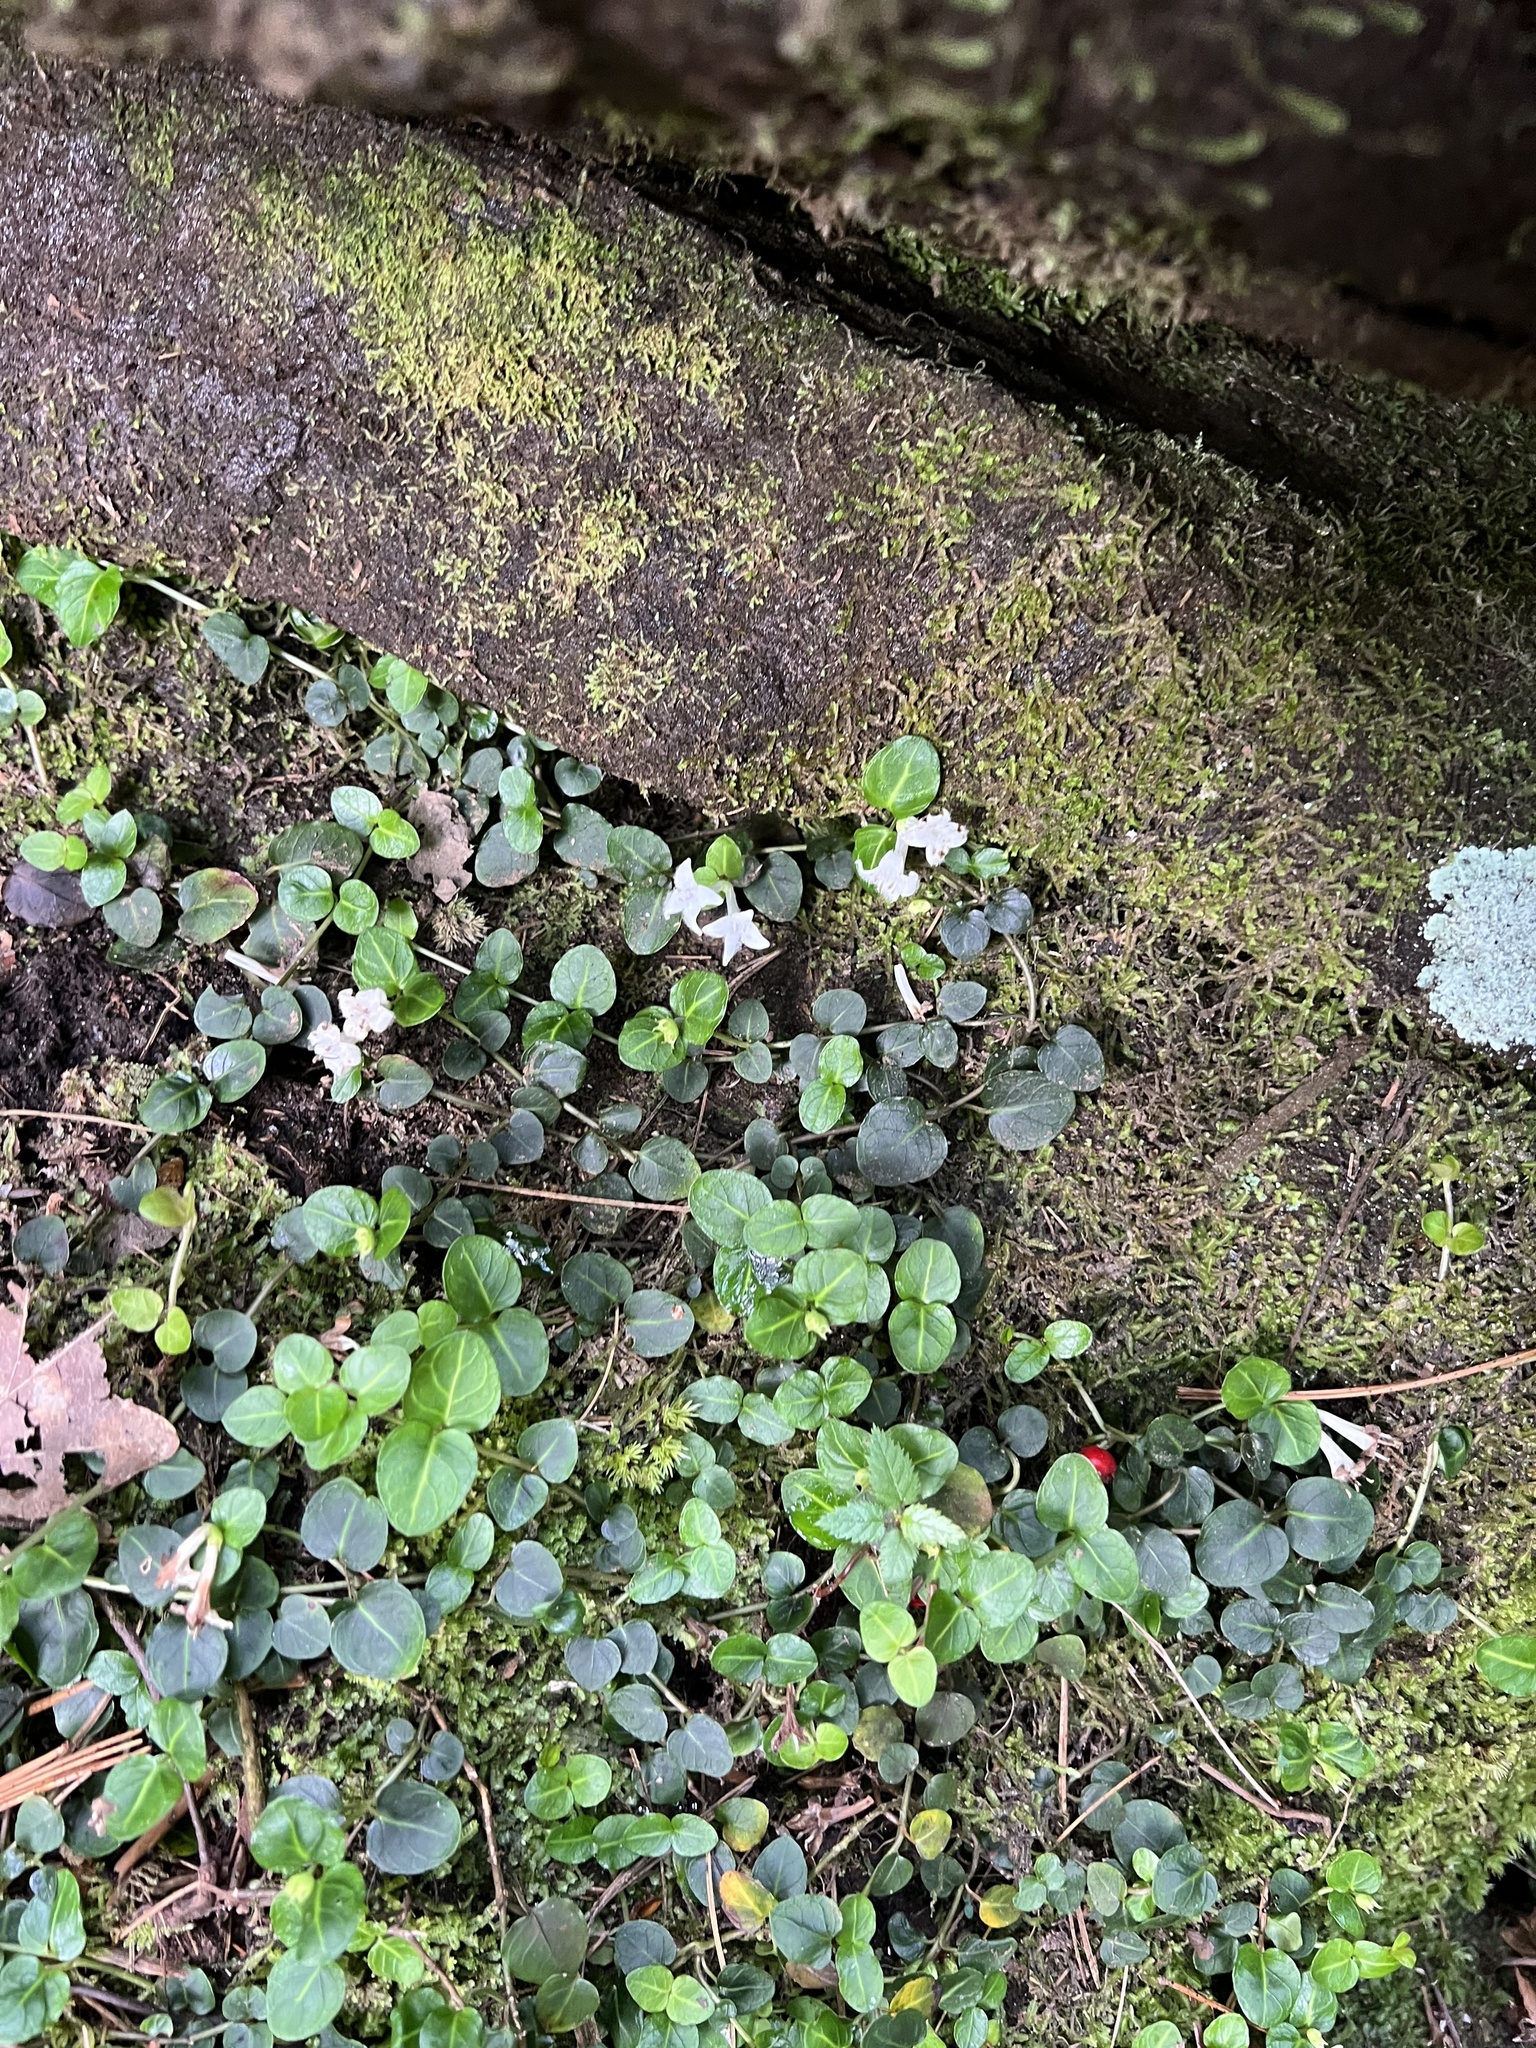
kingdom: Plantae
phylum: Tracheophyta
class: Magnoliopsida
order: Gentianales
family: Rubiaceae
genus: Mitchella
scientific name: Mitchella repens
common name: Partridge-berry
